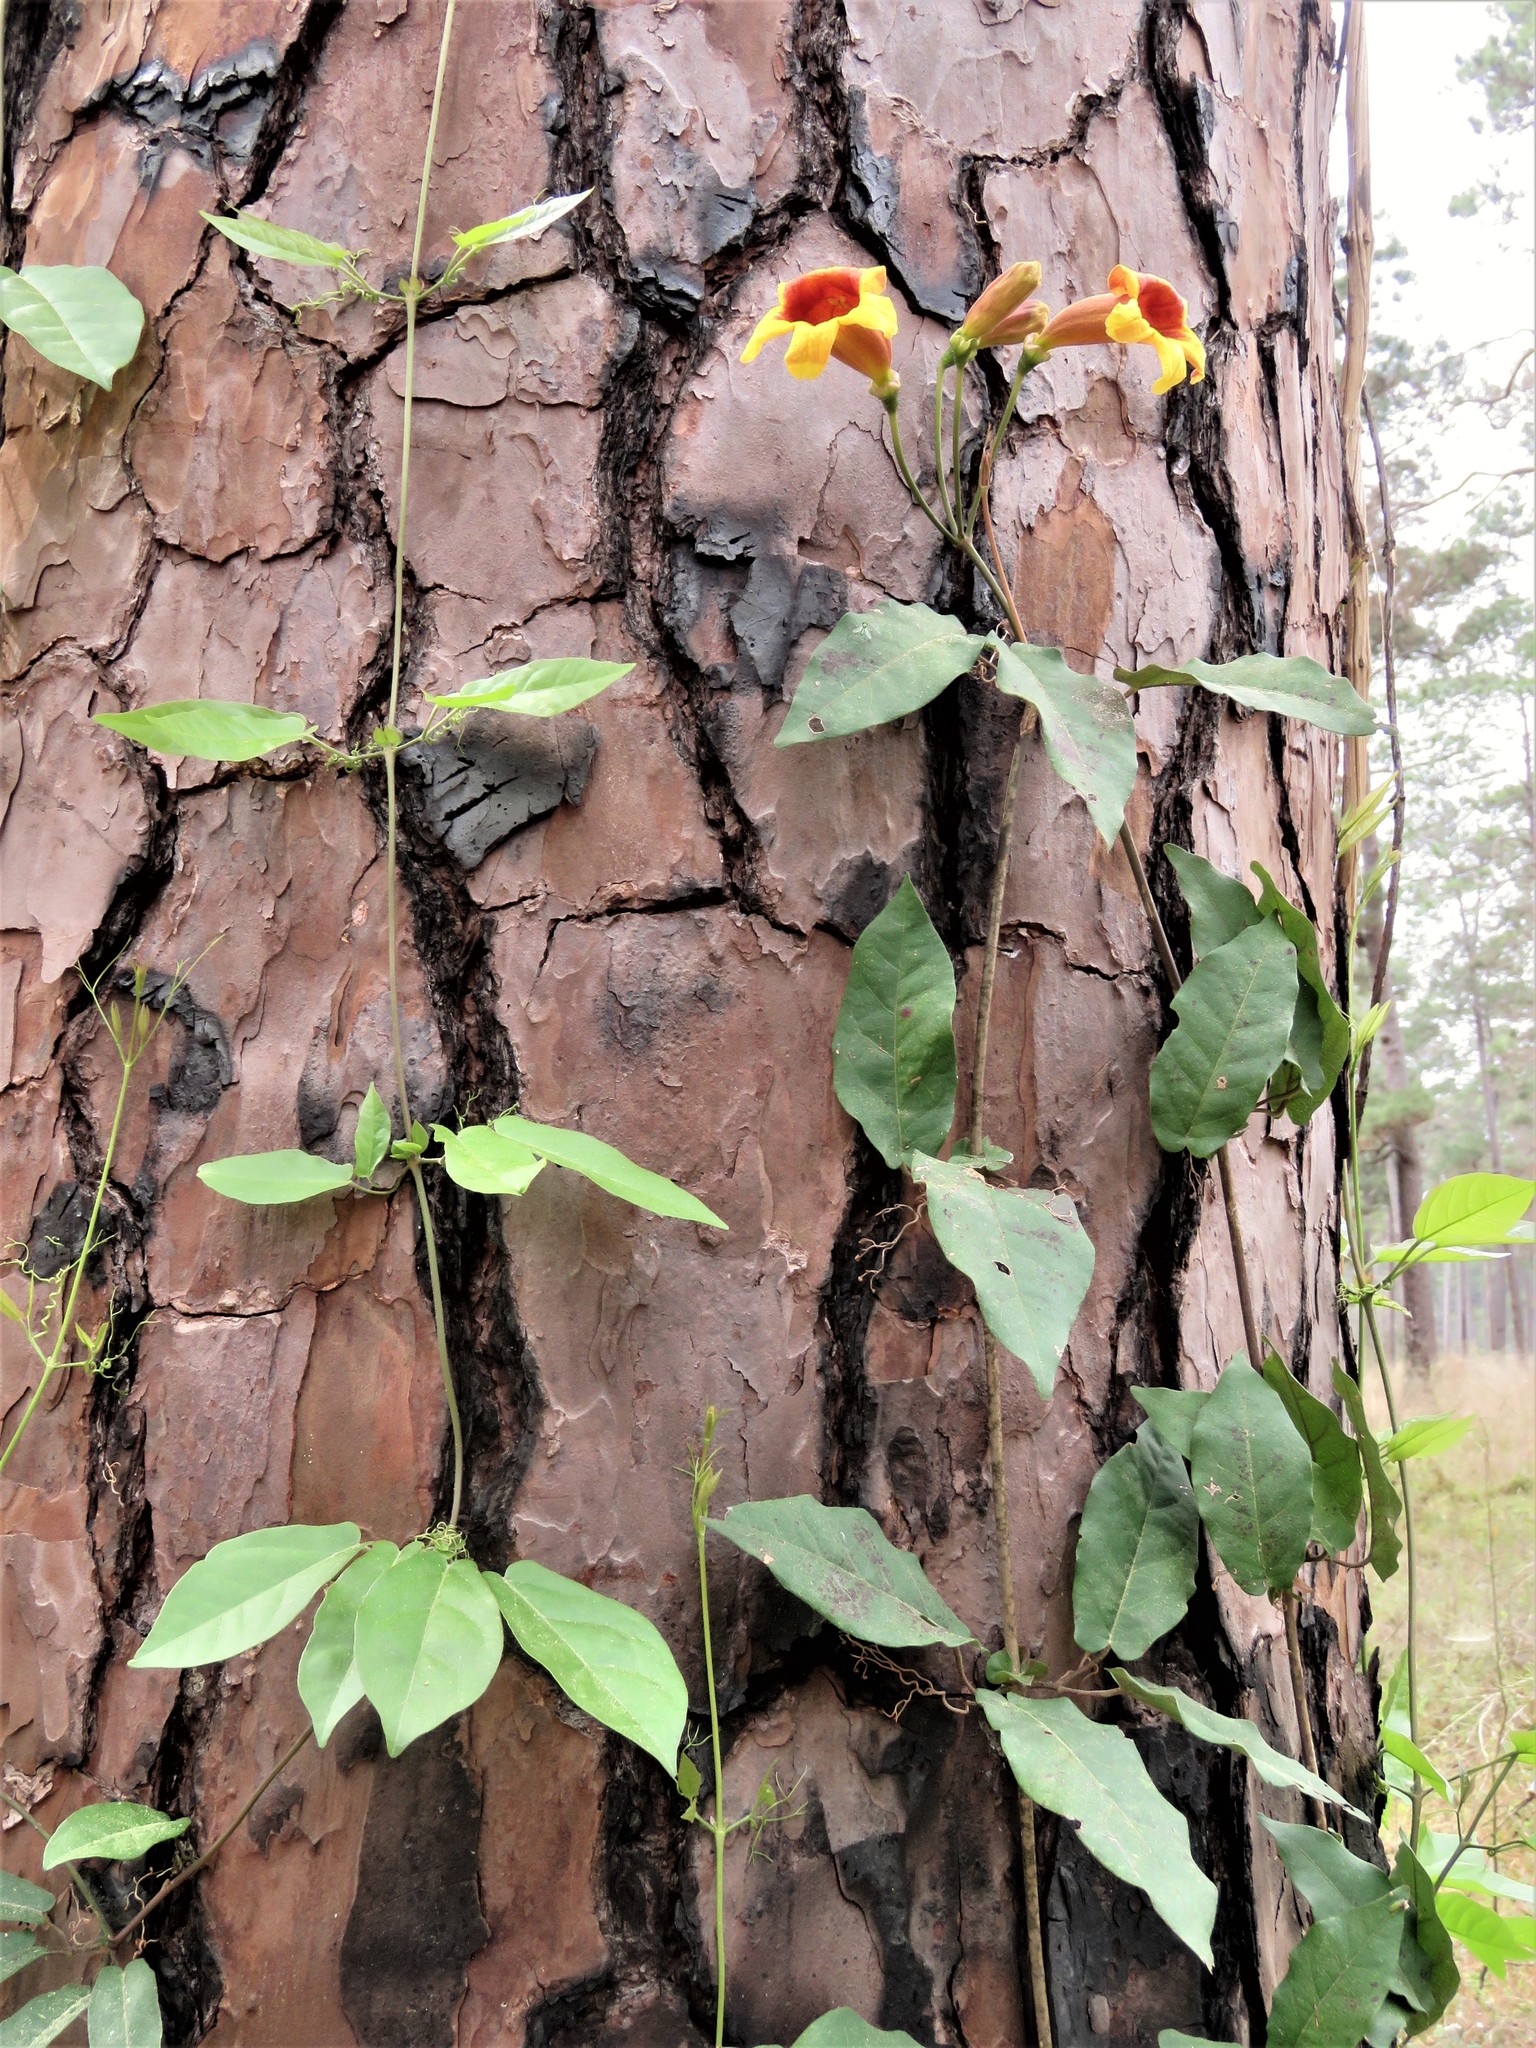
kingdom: Plantae
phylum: Tracheophyta
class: Magnoliopsida
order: Lamiales
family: Bignoniaceae
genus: Bignonia
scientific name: Bignonia capreolata
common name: Crossvine
